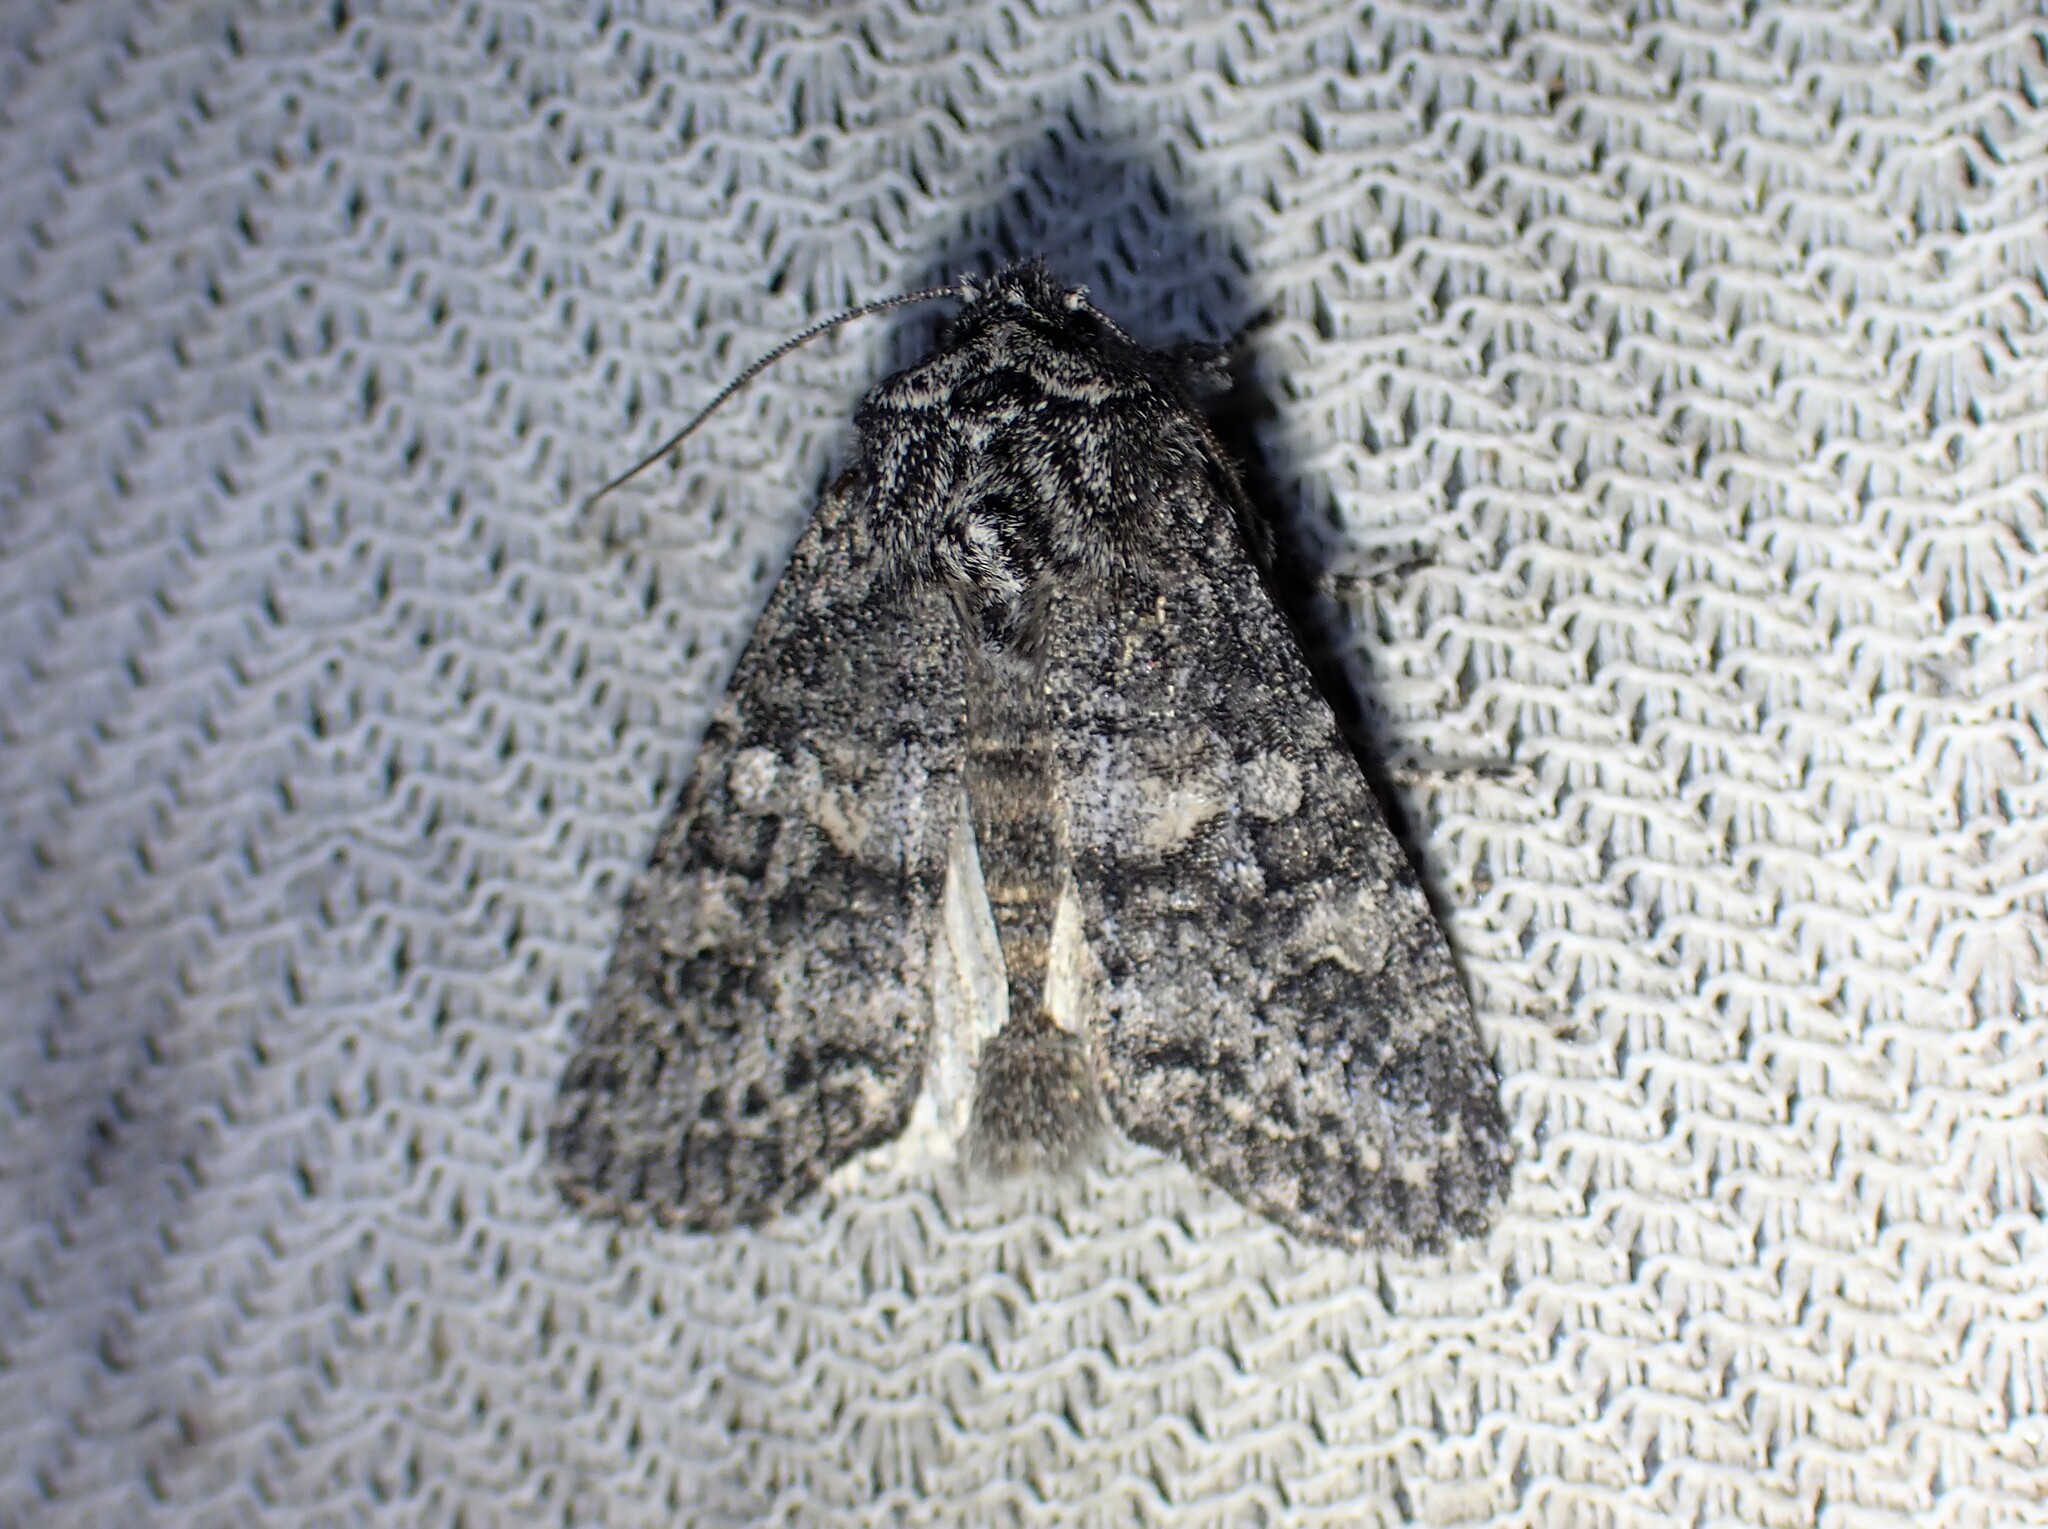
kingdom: Animalia
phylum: Arthropoda
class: Insecta
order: Lepidoptera
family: Noctuidae
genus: Egira
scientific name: Egira dolosa
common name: Lined black aspen cat.
